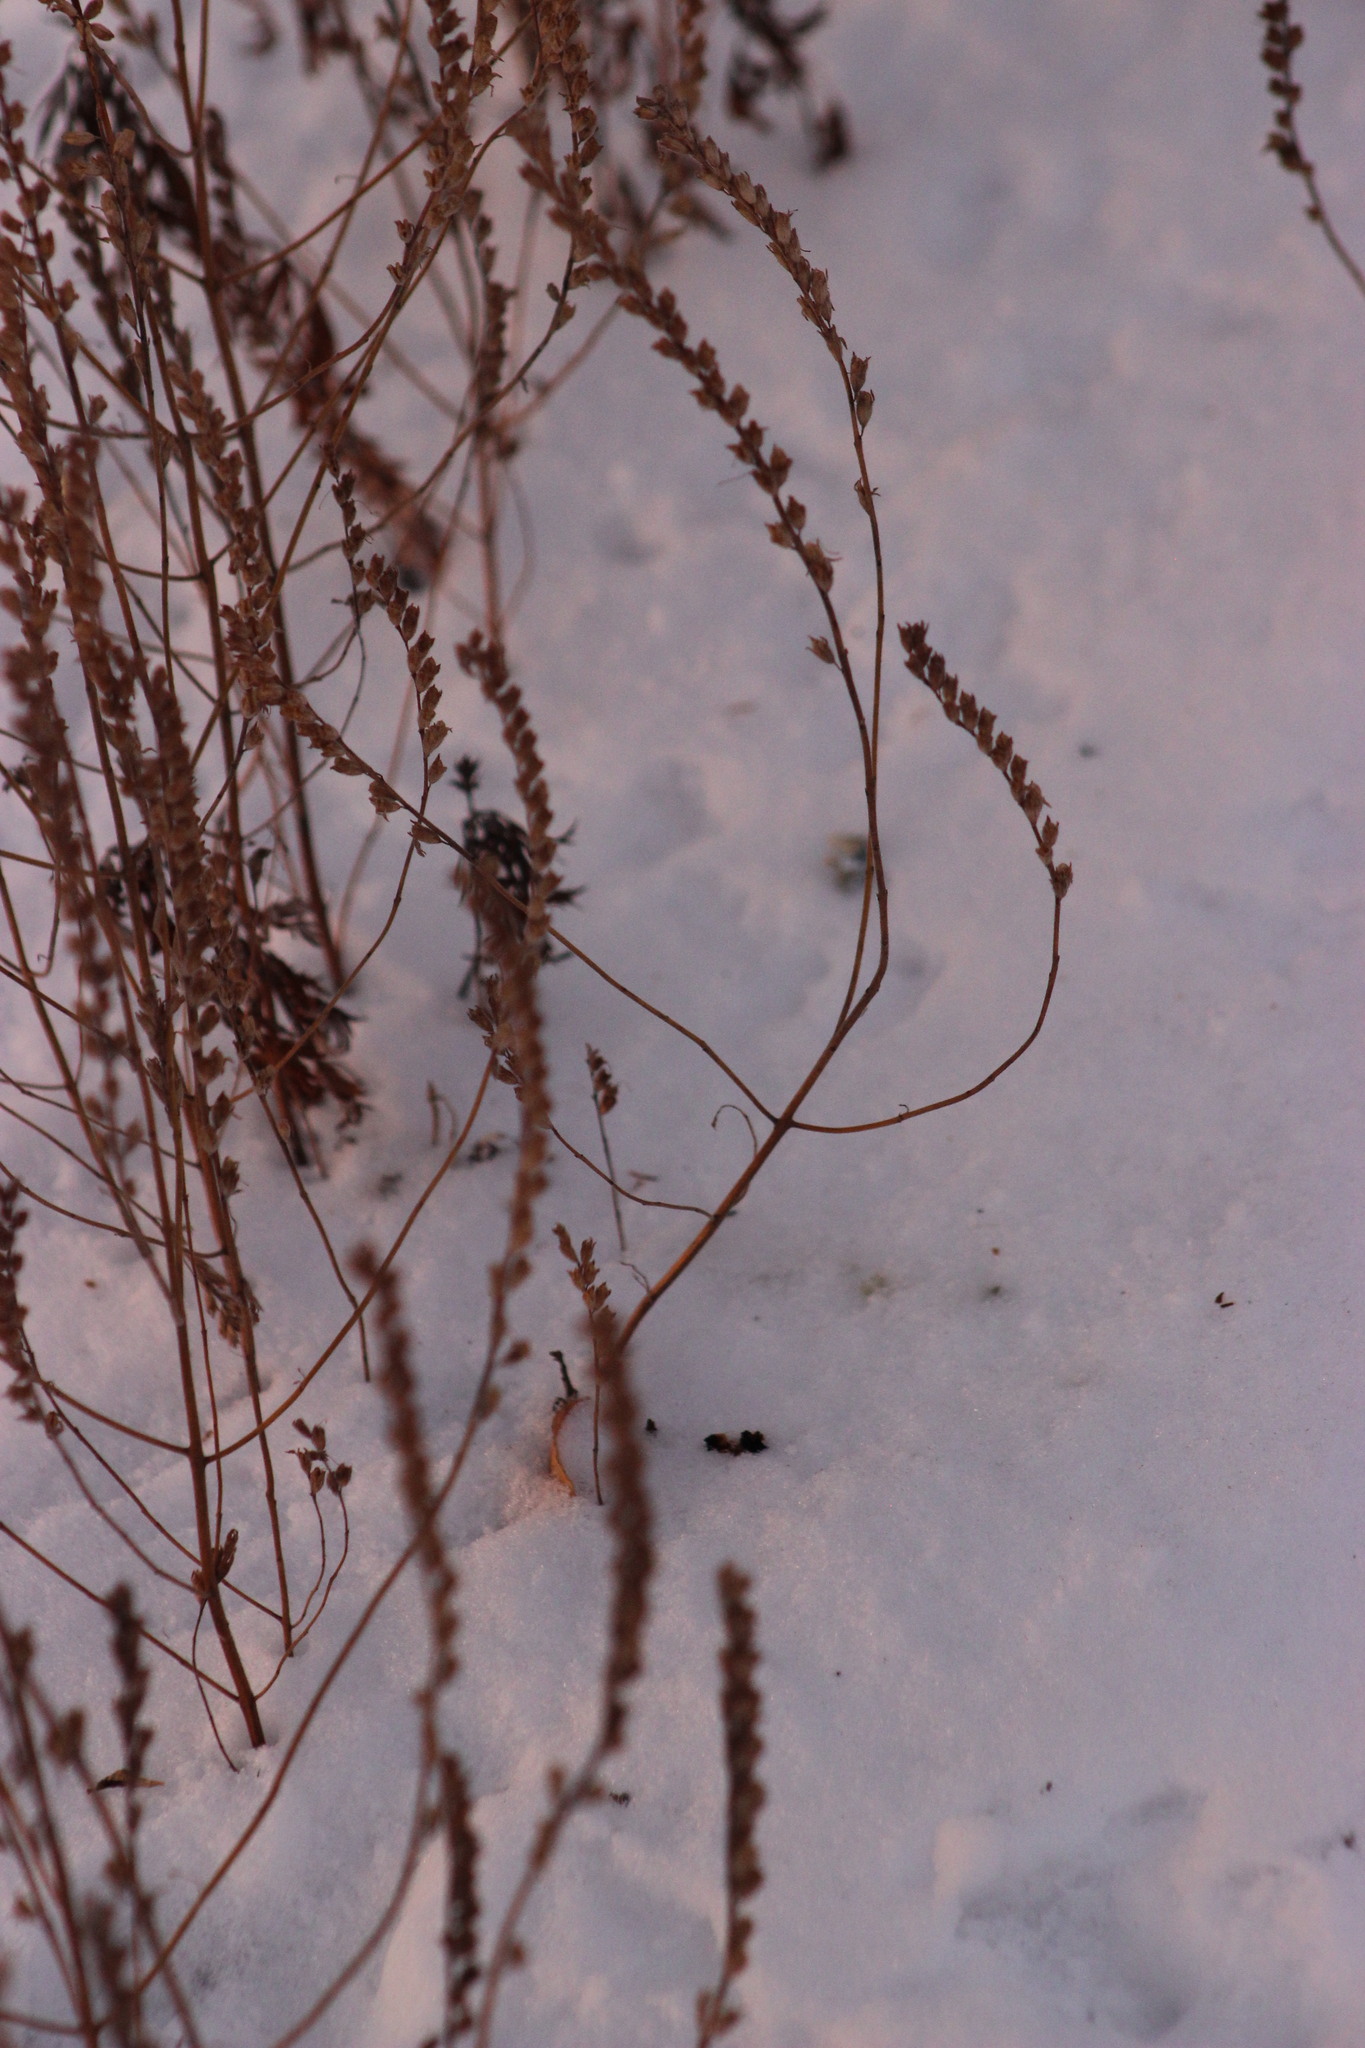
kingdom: Plantae
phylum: Tracheophyta
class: Magnoliopsida
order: Lamiales
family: Orobanchaceae
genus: Odontites
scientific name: Odontites vulgaris
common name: Broomrape
